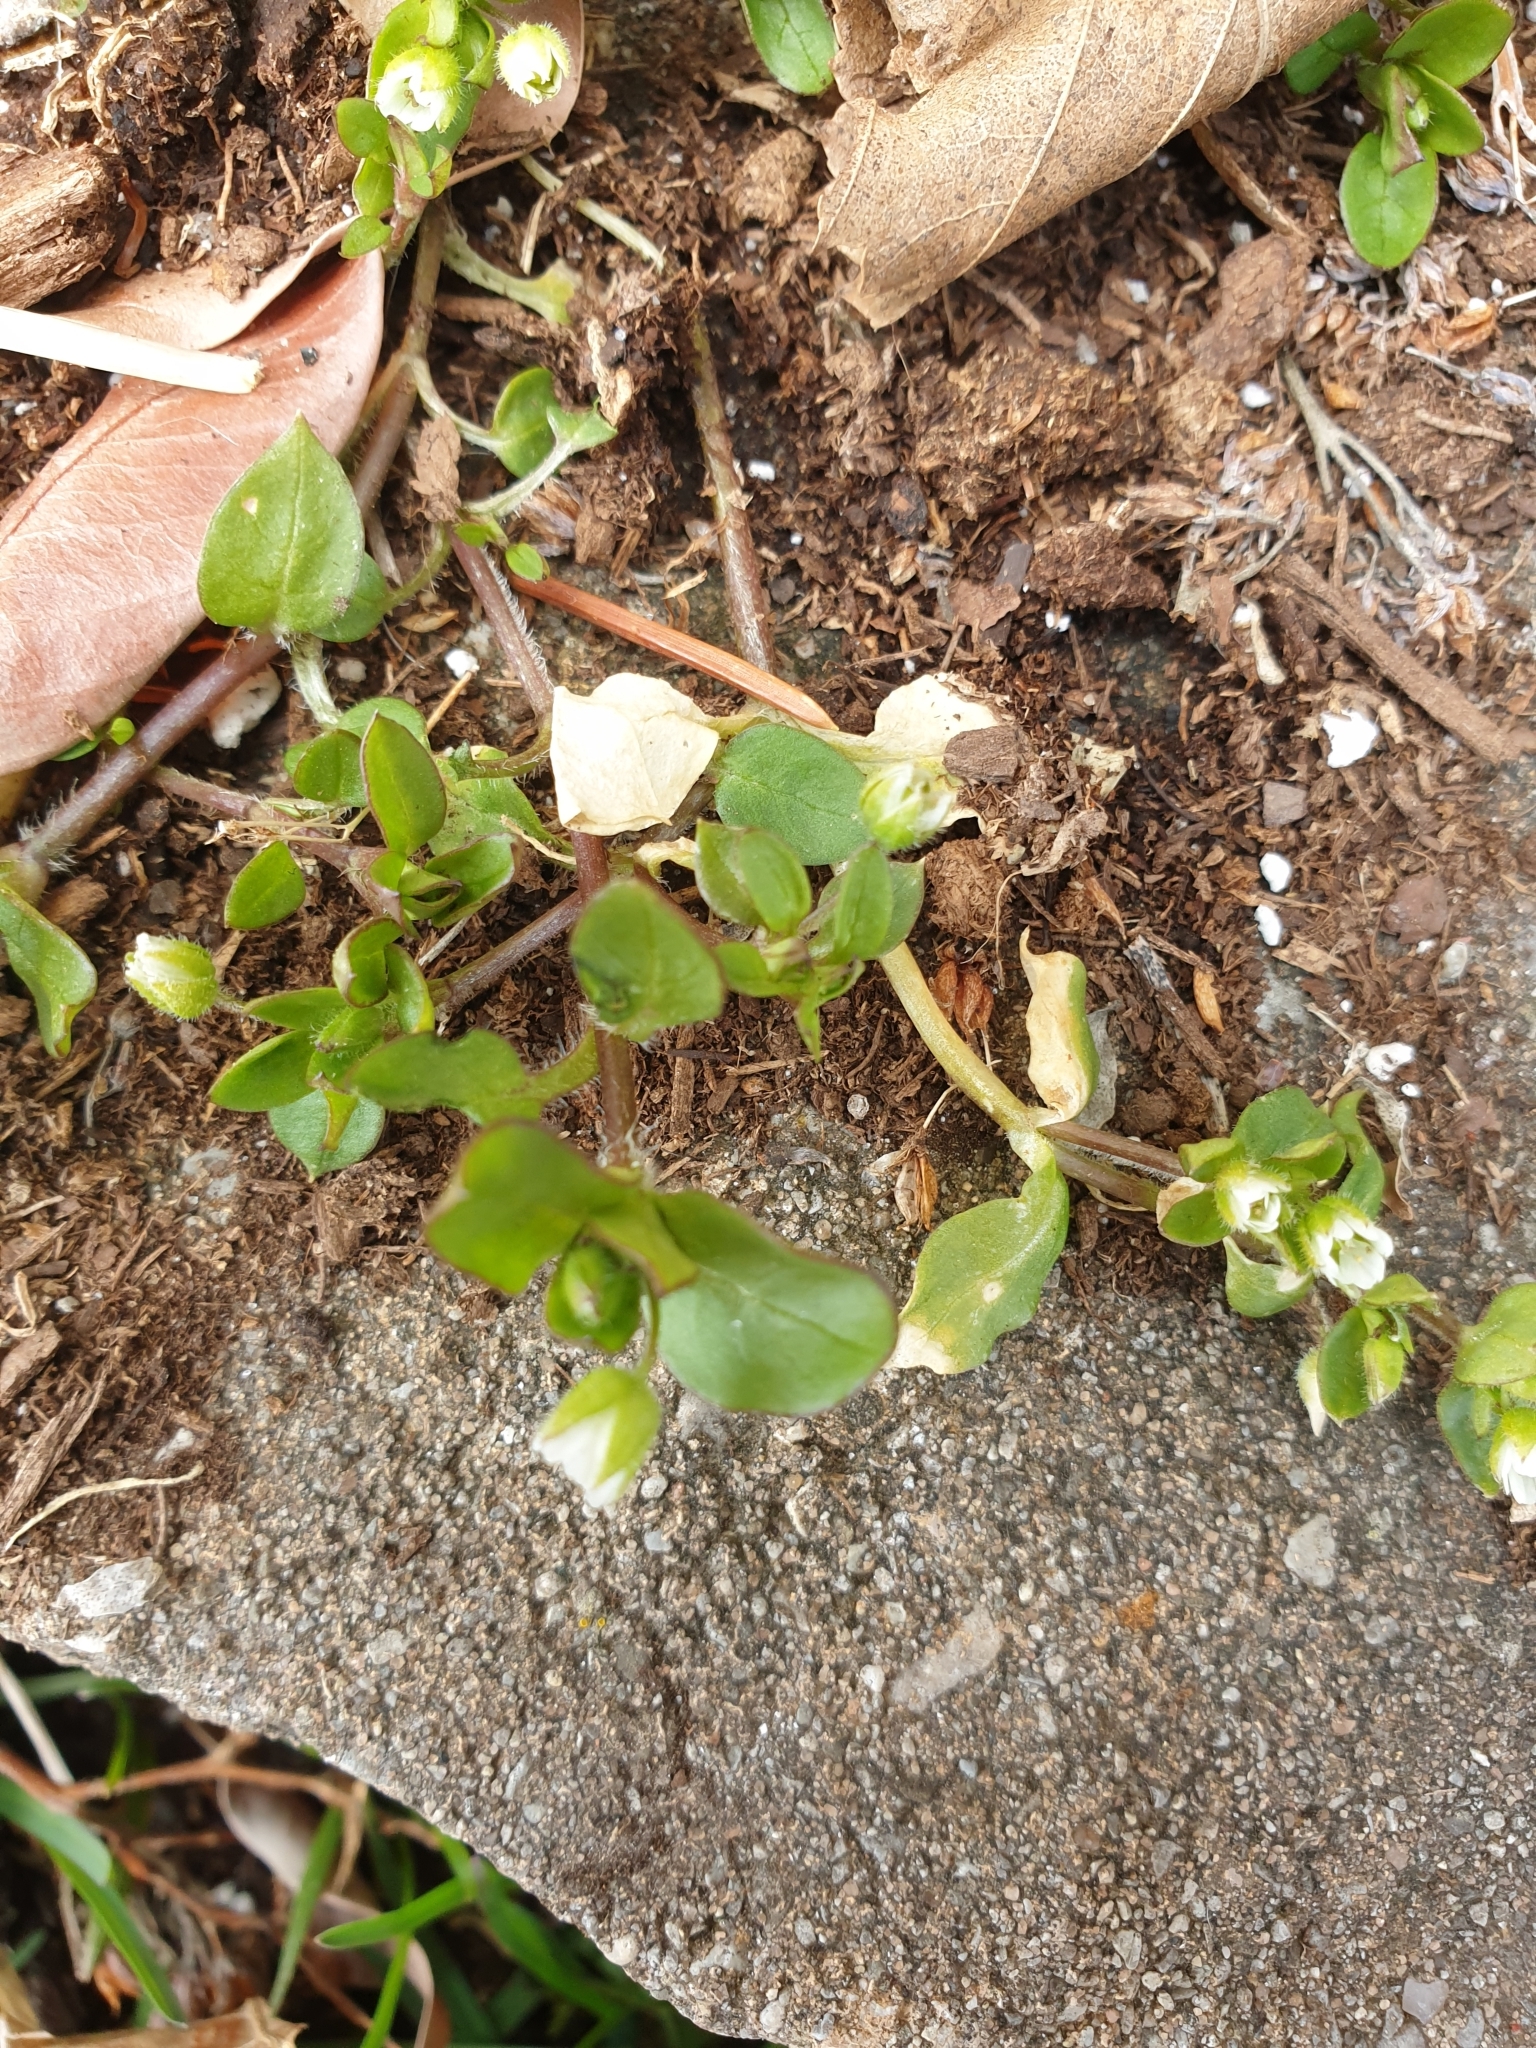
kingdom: Plantae
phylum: Tracheophyta
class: Magnoliopsida
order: Caryophyllales
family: Caryophyllaceae
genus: Stellaria
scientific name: Stellaria media
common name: Common chickweed
